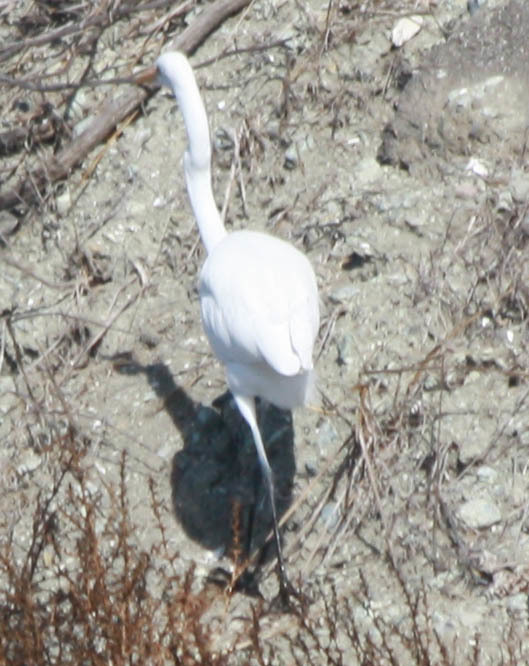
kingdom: Animalia
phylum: Chordata
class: Aves
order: Pelecaniformes
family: Ardeidae
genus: Ardea
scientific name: Ardea alba
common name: Great egret
